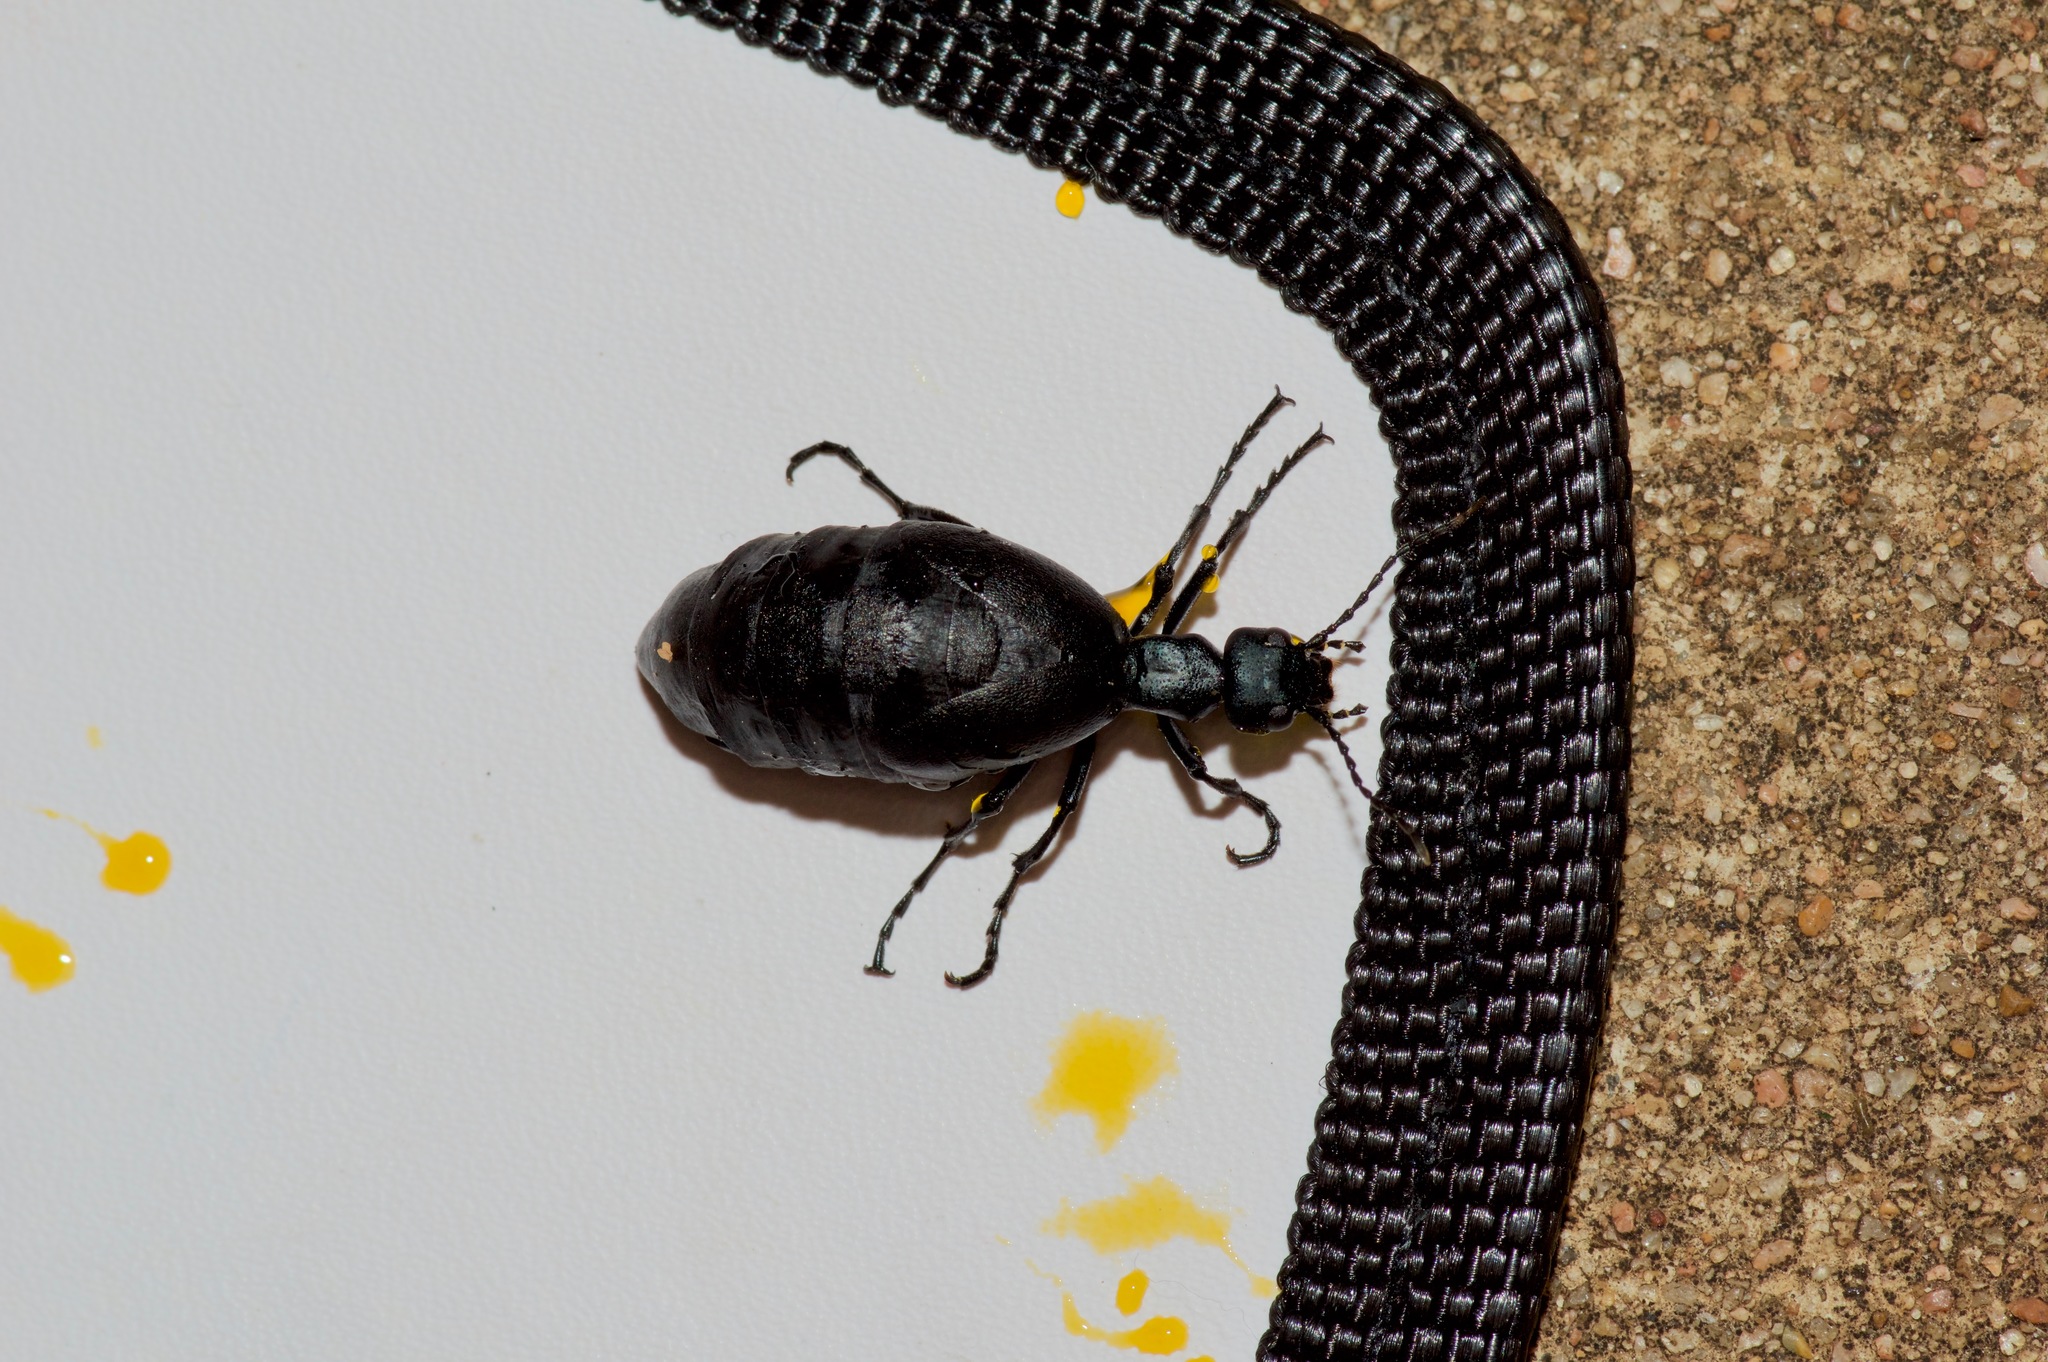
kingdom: Animalia
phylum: Arthropoda
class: Insecta
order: Coleoptera
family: Meloidae
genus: Meloe
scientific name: Meloe americanus
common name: Buttercup oil beetle
